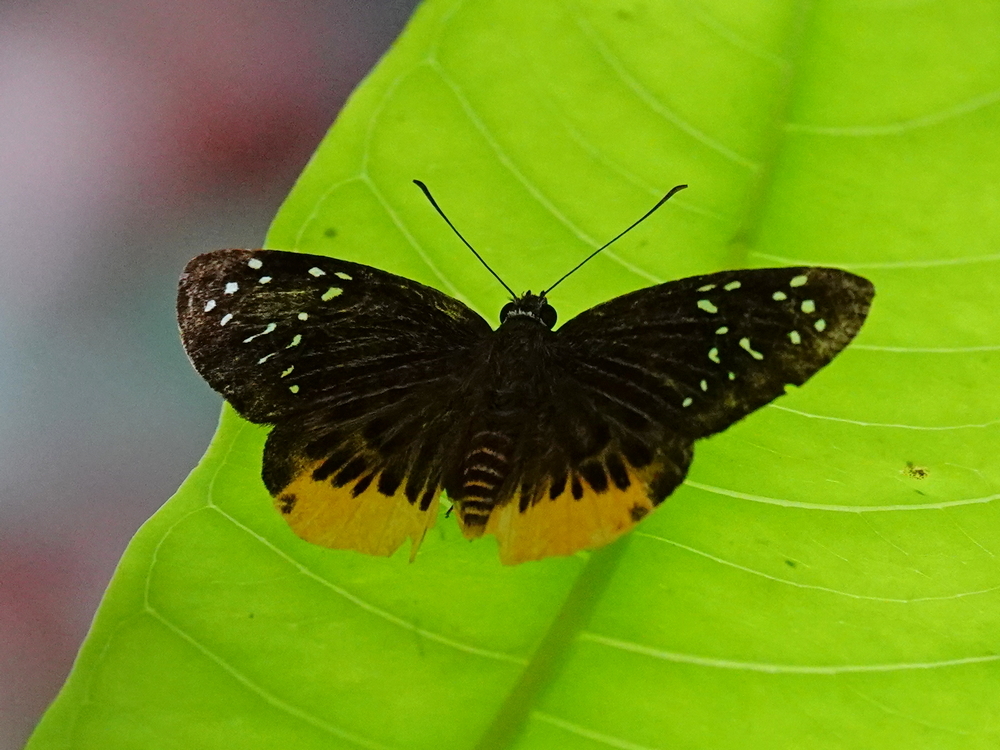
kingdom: Animalia
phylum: Arthropoda
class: Insecta
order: Lepidoptera
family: Hesperiidae
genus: Mooreana
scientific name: Mooreana trichoneura
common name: Yellow flat
